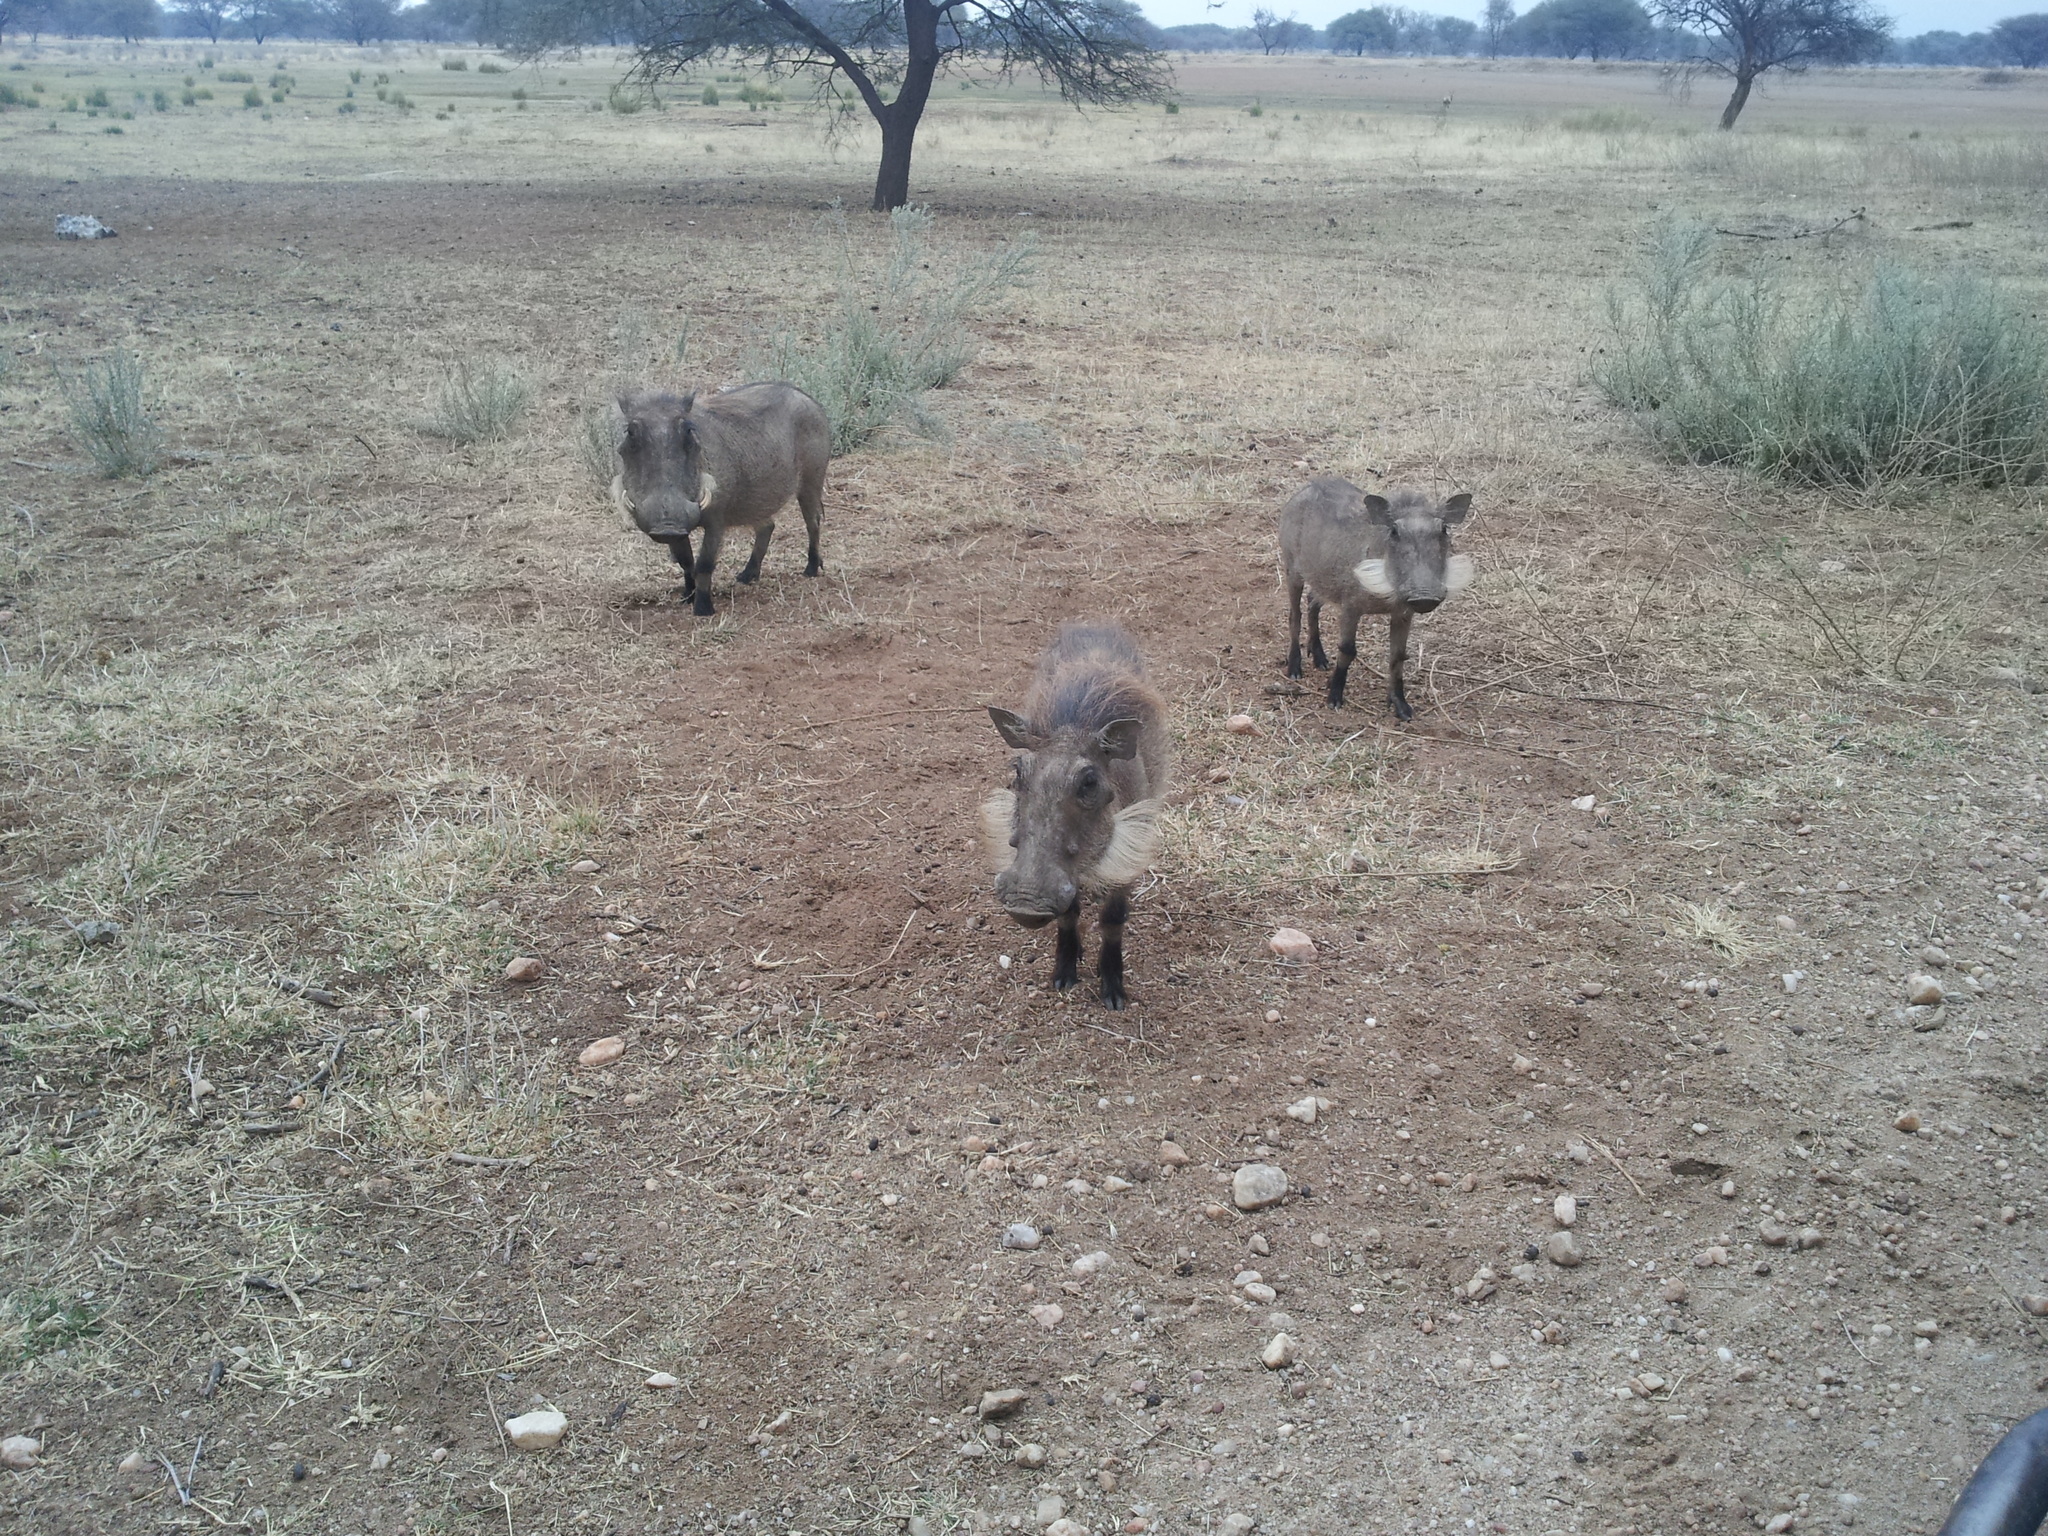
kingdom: Animalia
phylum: Chordata
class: Mammalia
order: Artiodactyla
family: Suidae
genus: Phacochoerus
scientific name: Phacochoerus africanus
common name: Common warthog
